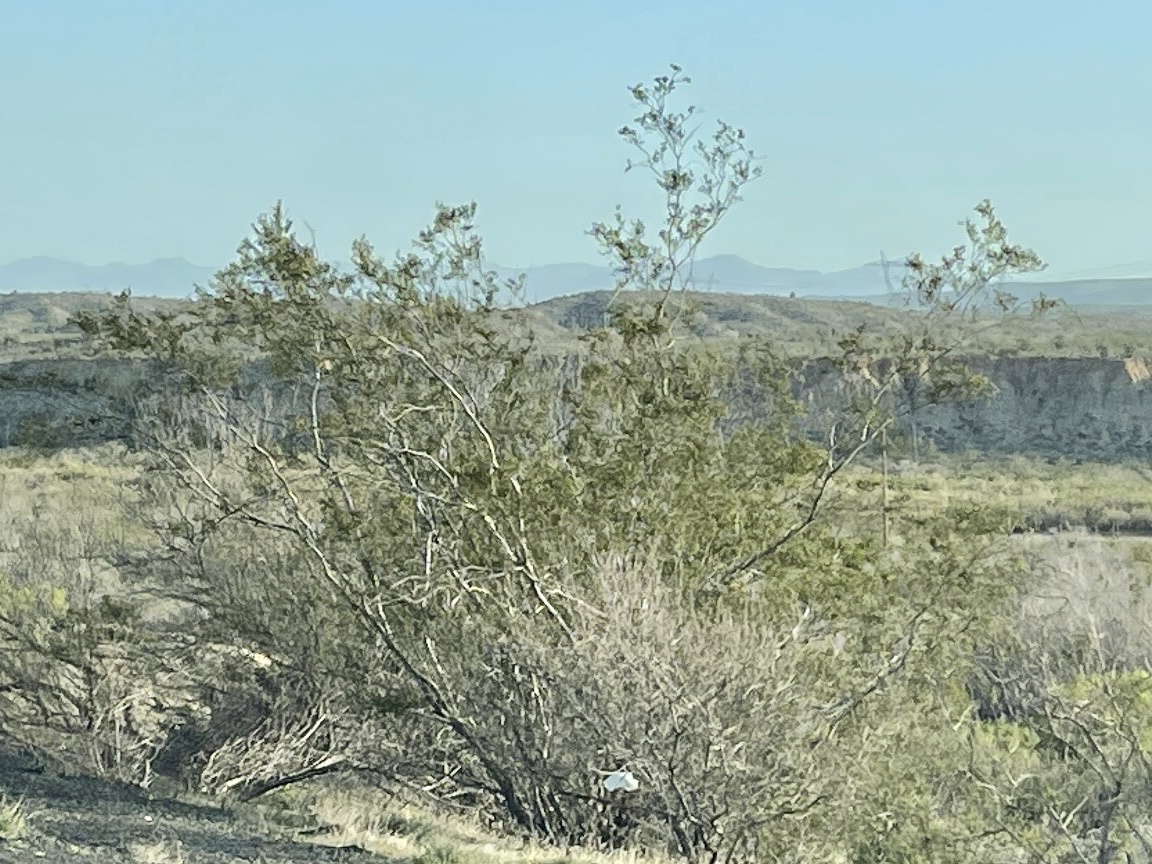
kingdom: Plantae
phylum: Tracheophyta
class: Magnoliopsida
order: Zygophyllales
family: Zygophyllaceae
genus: Larrea
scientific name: Larrea tridentata
